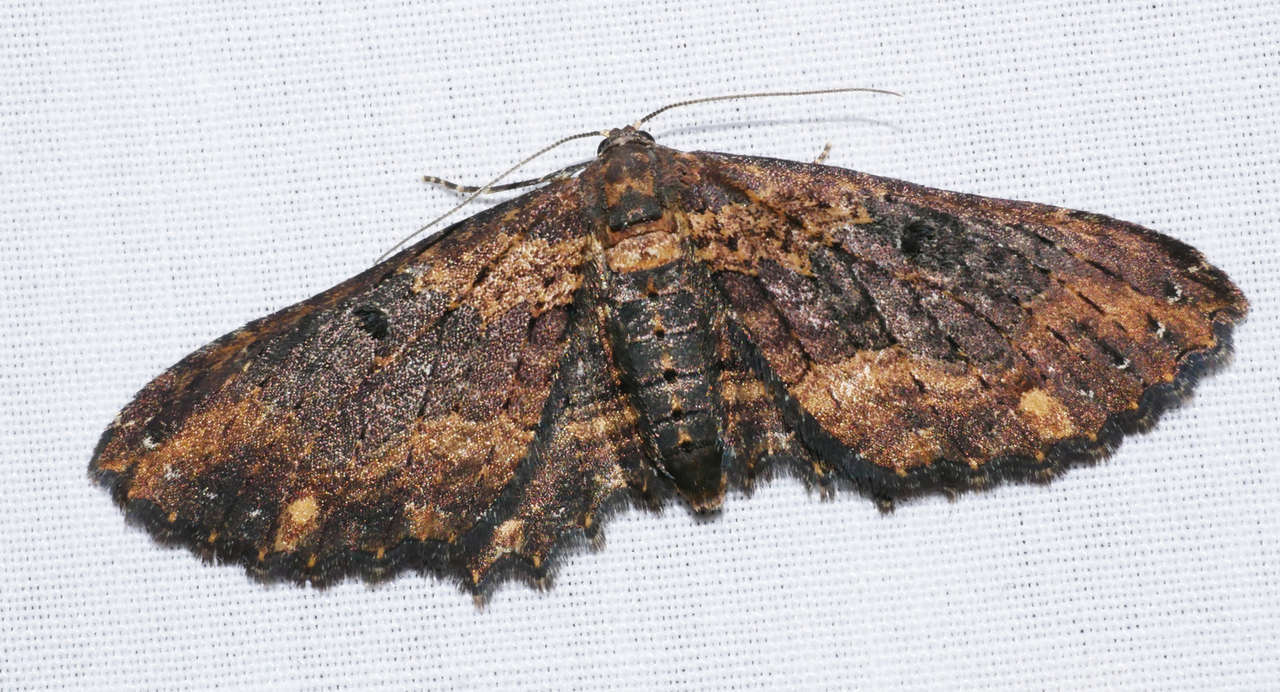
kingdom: Animalia
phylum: Arthropoda
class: Insecta
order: Lepidoptera
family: Geometridae
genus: Eccymatoge
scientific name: Eccymatoge callizona
